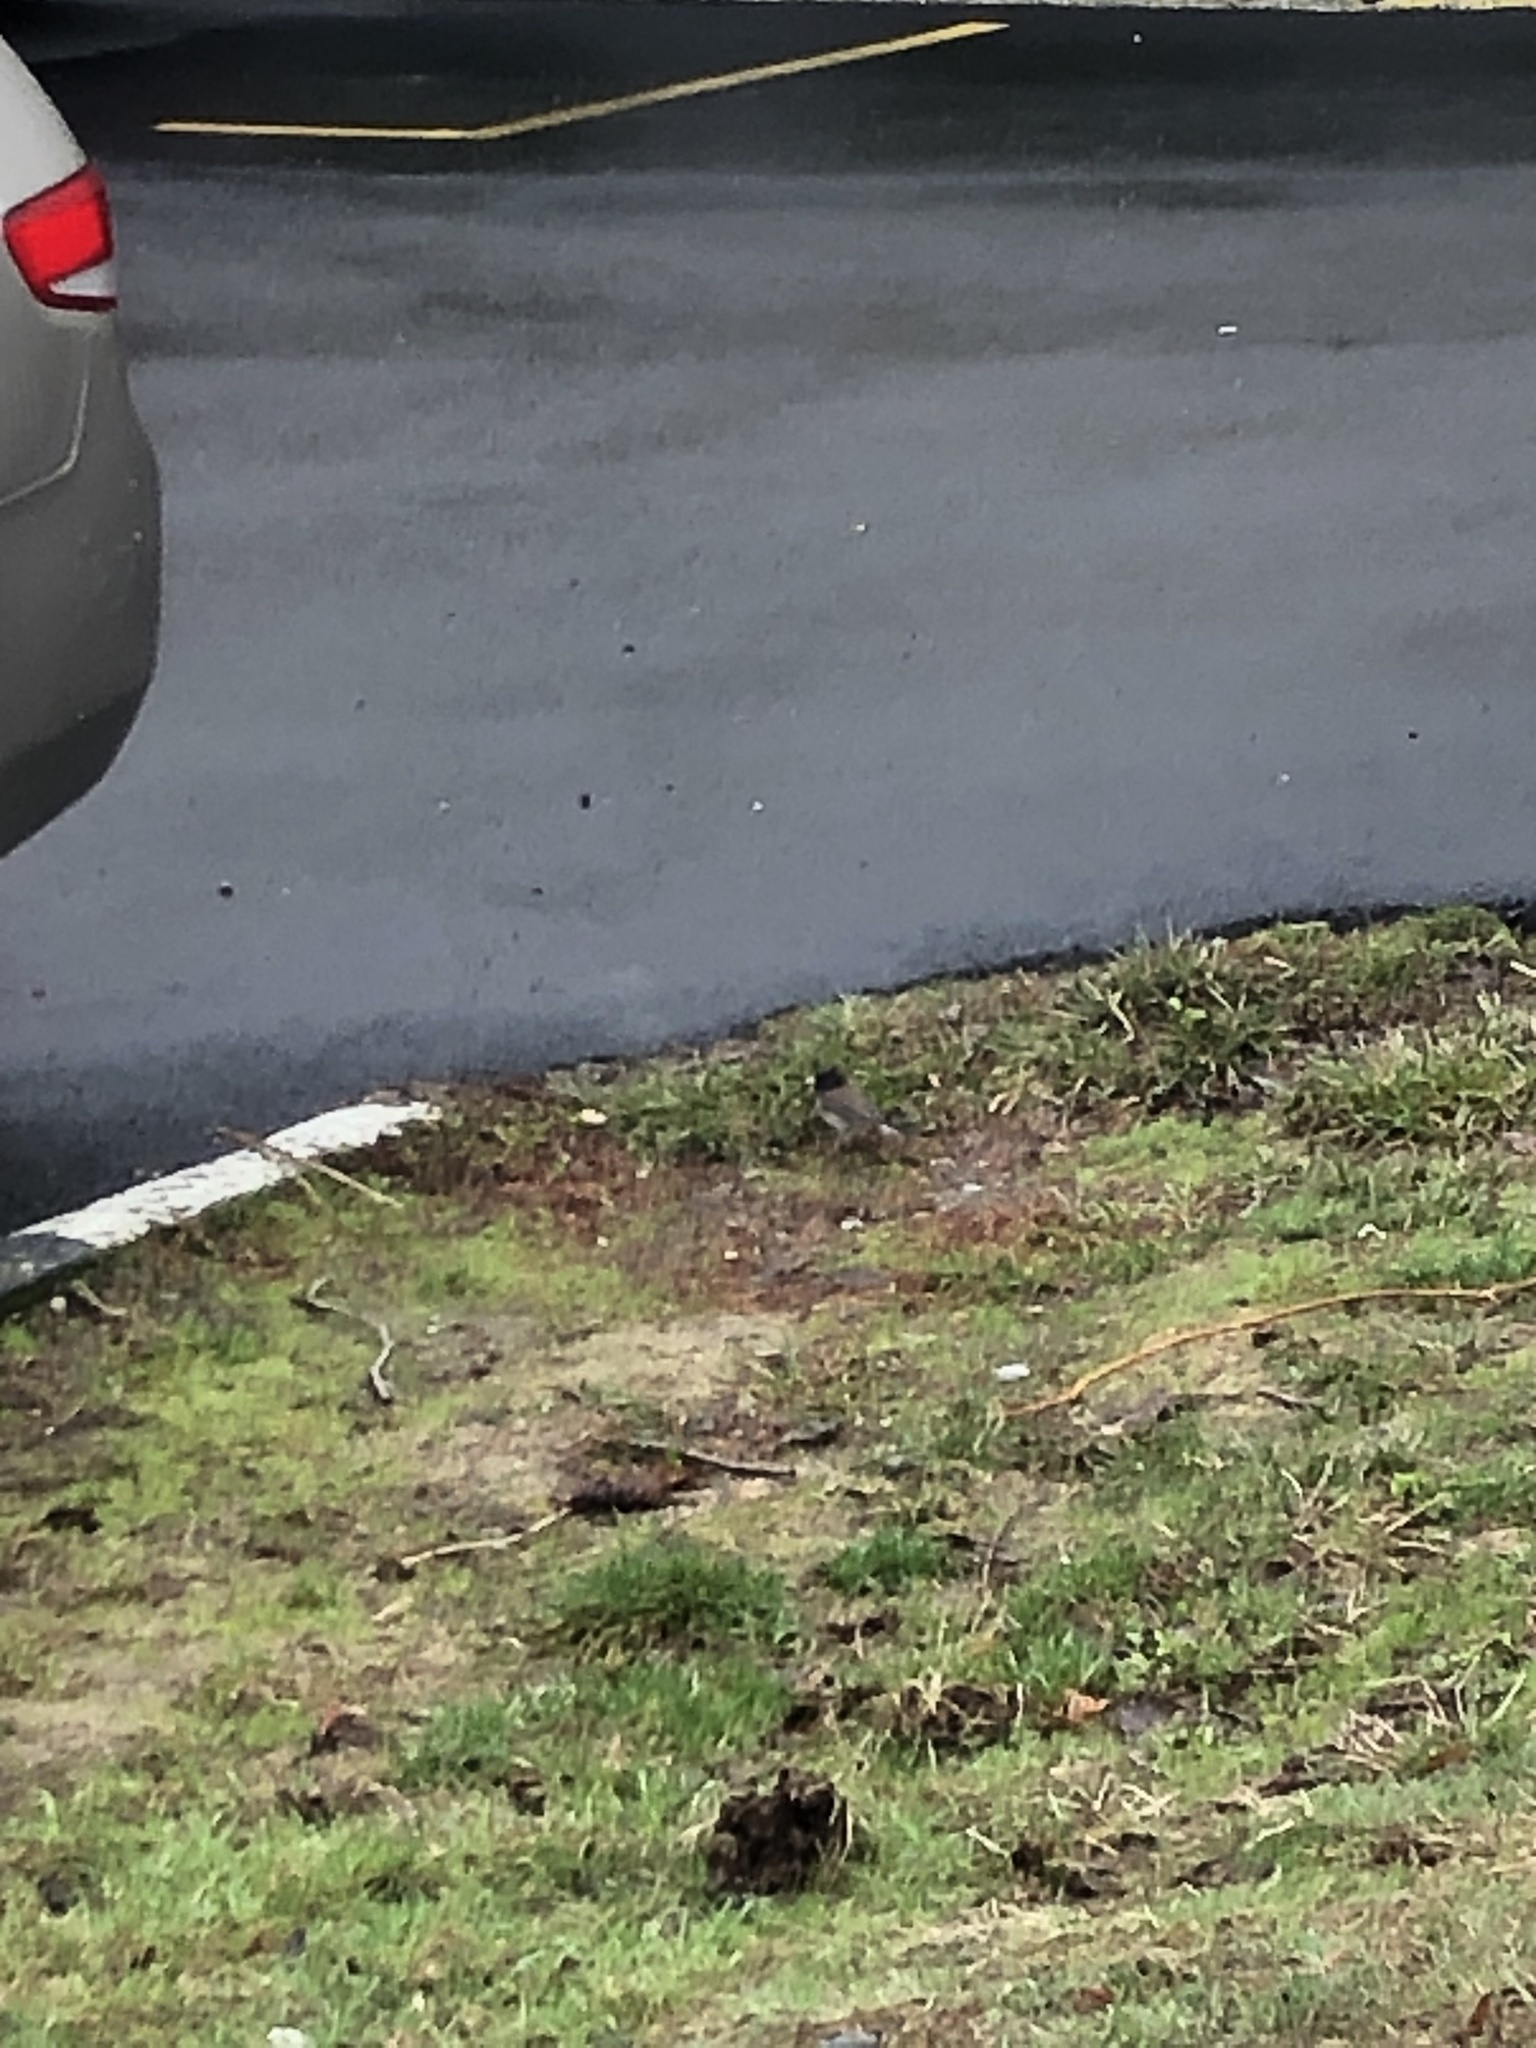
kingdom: Animalia
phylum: Chordata
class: Aves
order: Passeriformes
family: Passerellidae
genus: Junco
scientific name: Junco hyemalis
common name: Dark-eyed junco
